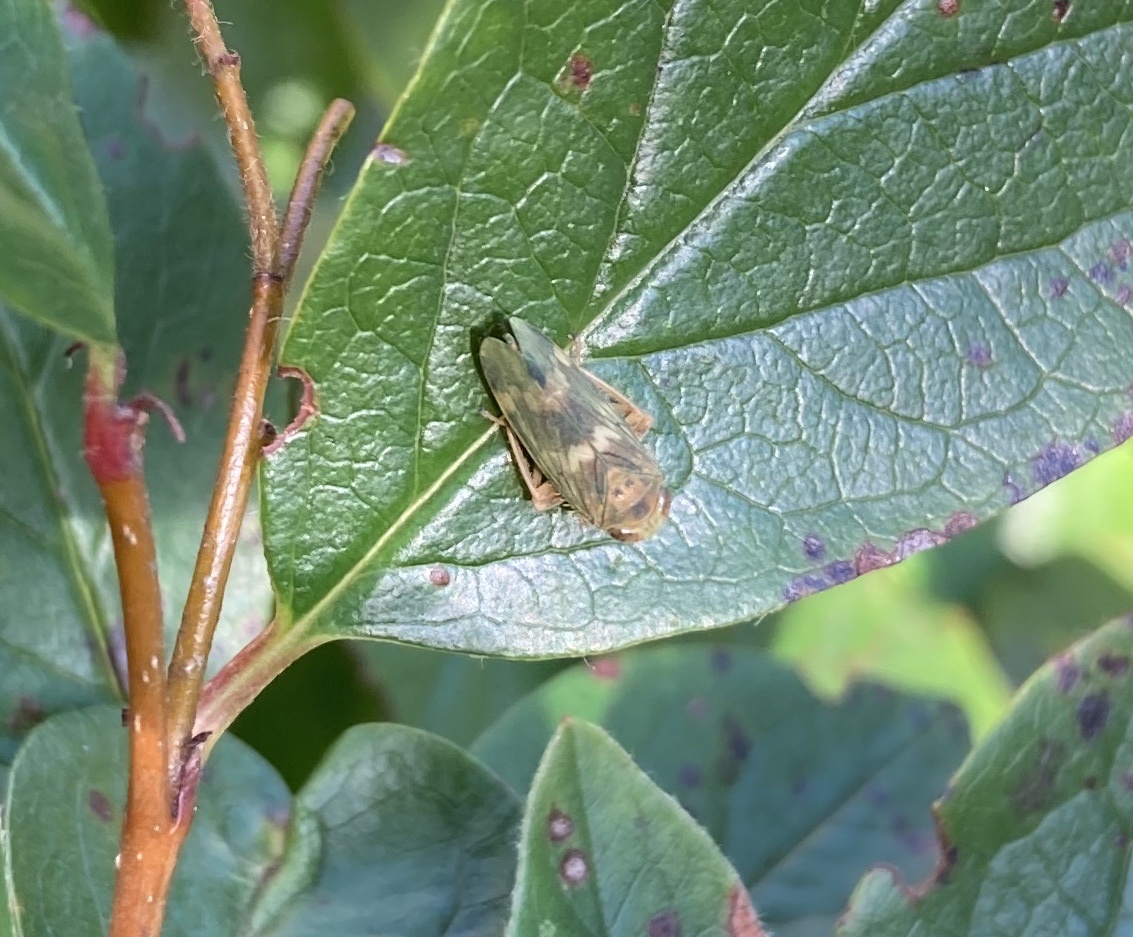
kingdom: Animalia
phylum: Arthropoda
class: Insecta
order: Hemiptera
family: Cicadellidae
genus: Jikradia
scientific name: Jikradia olitoria
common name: Coppery leafhopper
